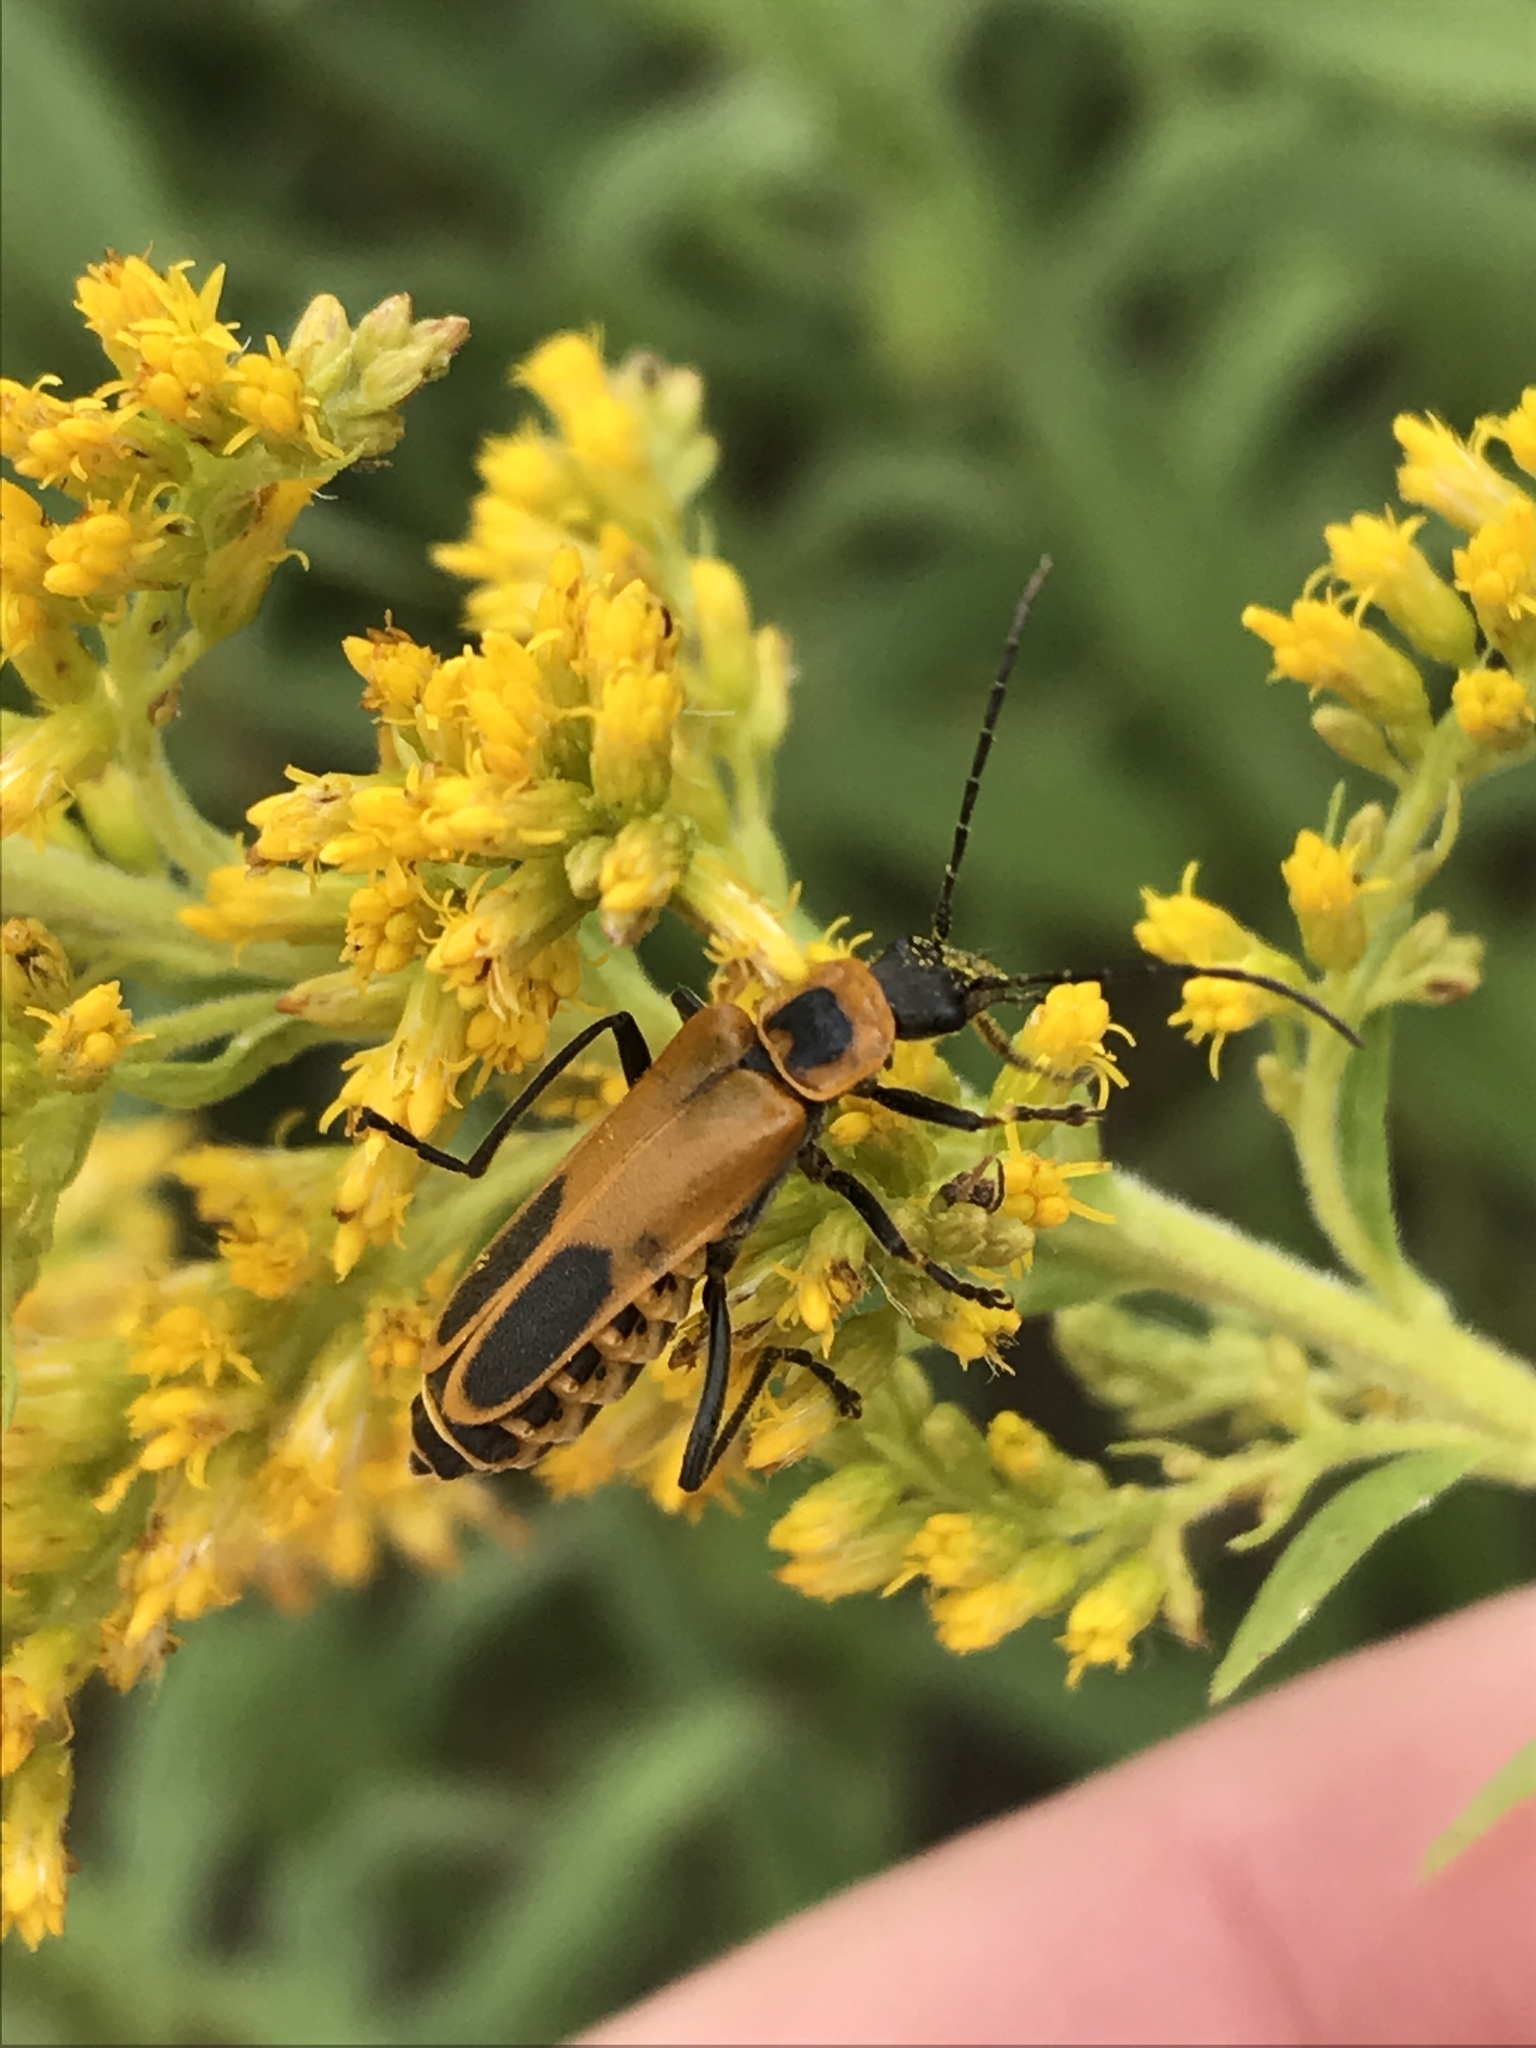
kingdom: Animalia
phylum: Arthropoda
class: Insecta
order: Coleoptera
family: Cantharidae
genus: Chauliognathus
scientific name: Chauliognathus pensylvanicus
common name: Goldenrod soldier beetle
